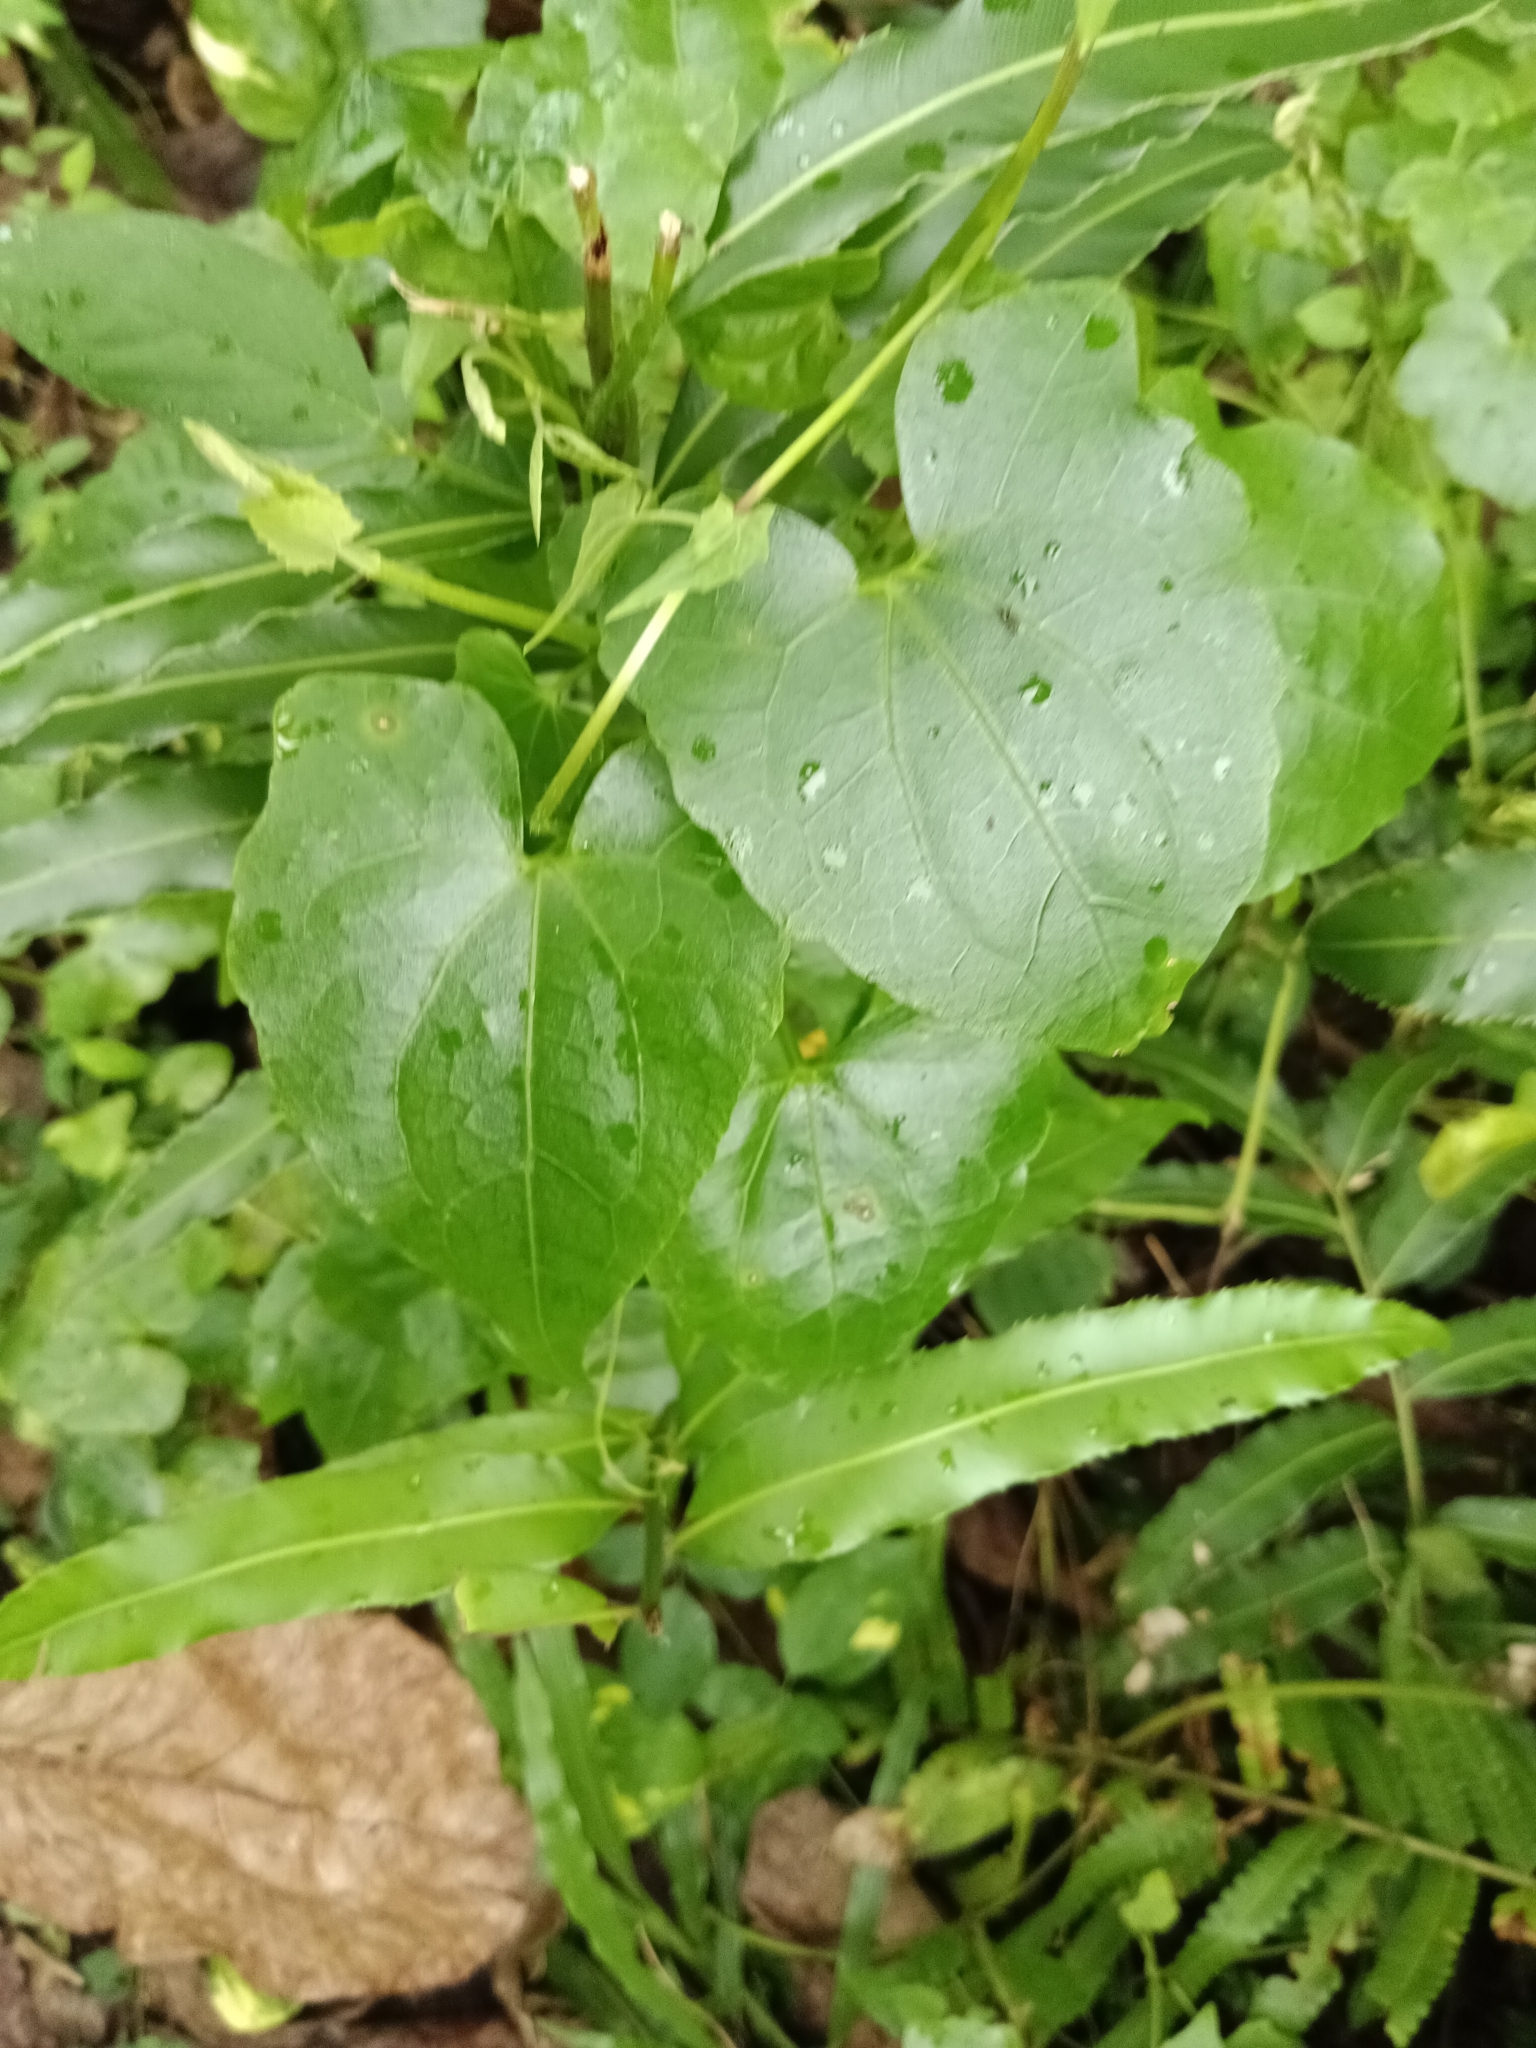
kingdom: Plantae
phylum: Tracheophyta
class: Magnoliopsida
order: Asterales
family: Asteraceae
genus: Mikania
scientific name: Mikania micrantha
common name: Mile-a-minute
